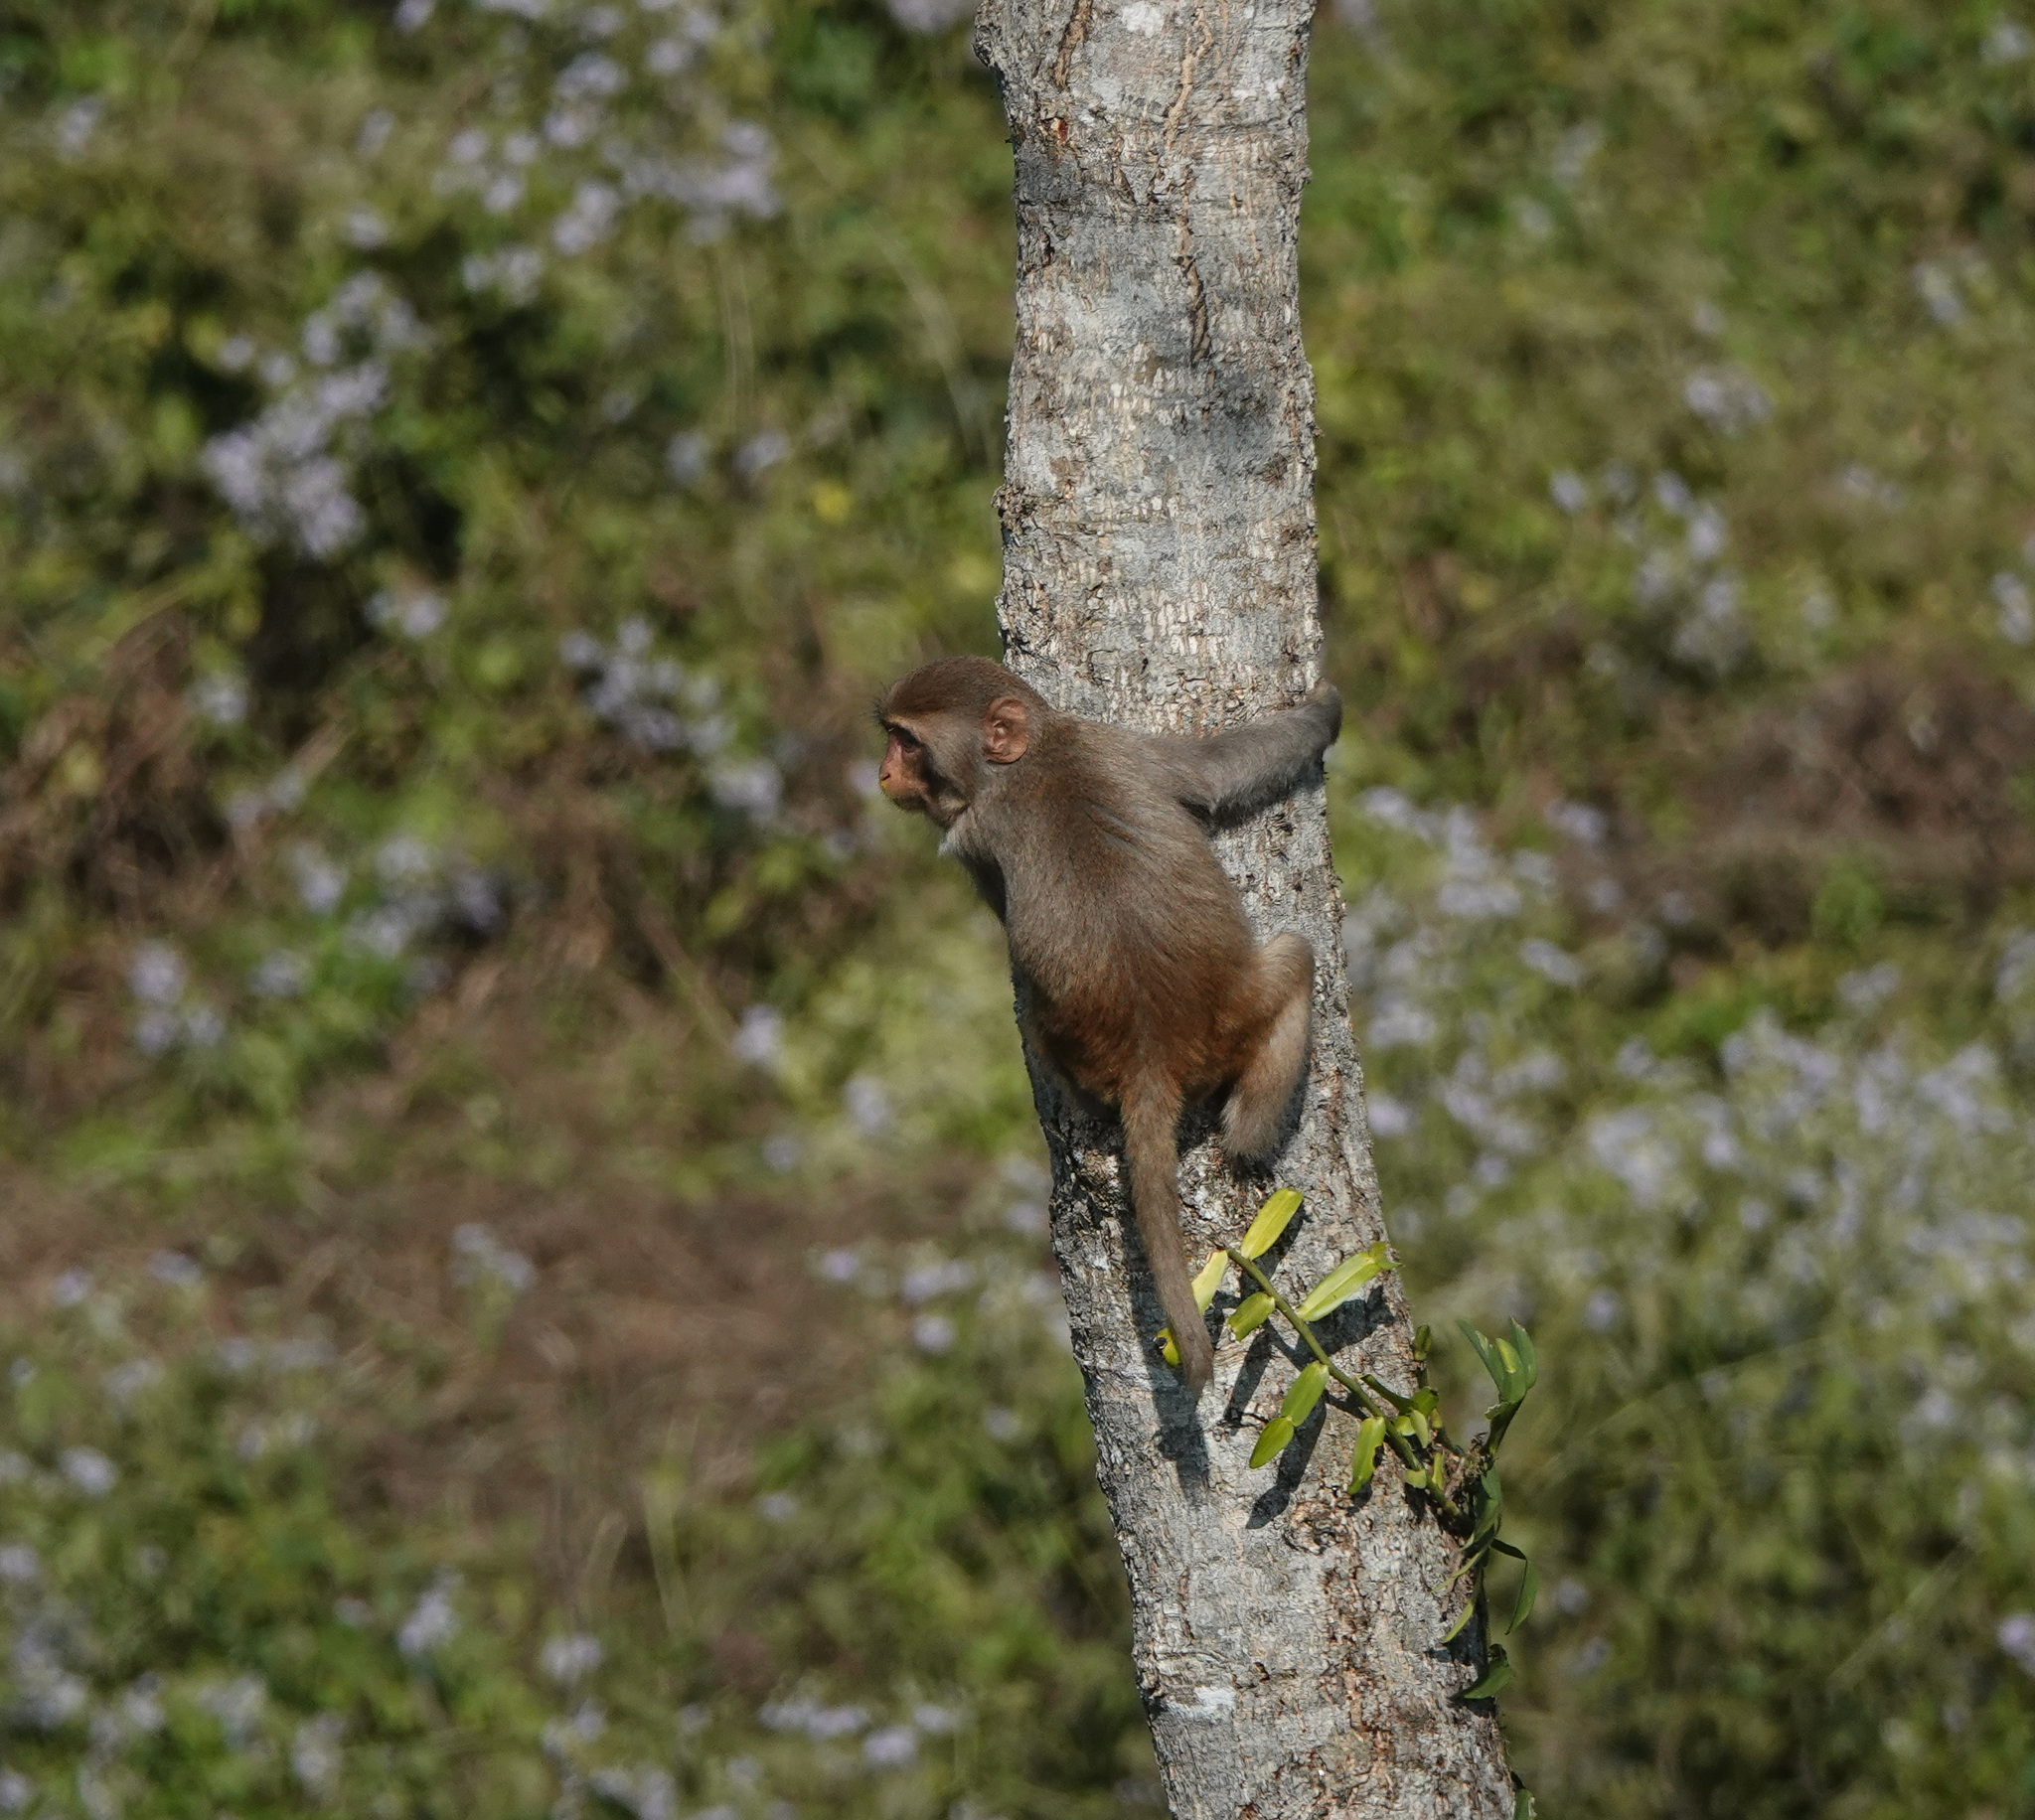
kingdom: Animalia
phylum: Chordata
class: Mammalia
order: Primates
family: Cercopithecidae
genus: Macaca
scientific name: Macaca mulatta
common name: Rhesus monkey
